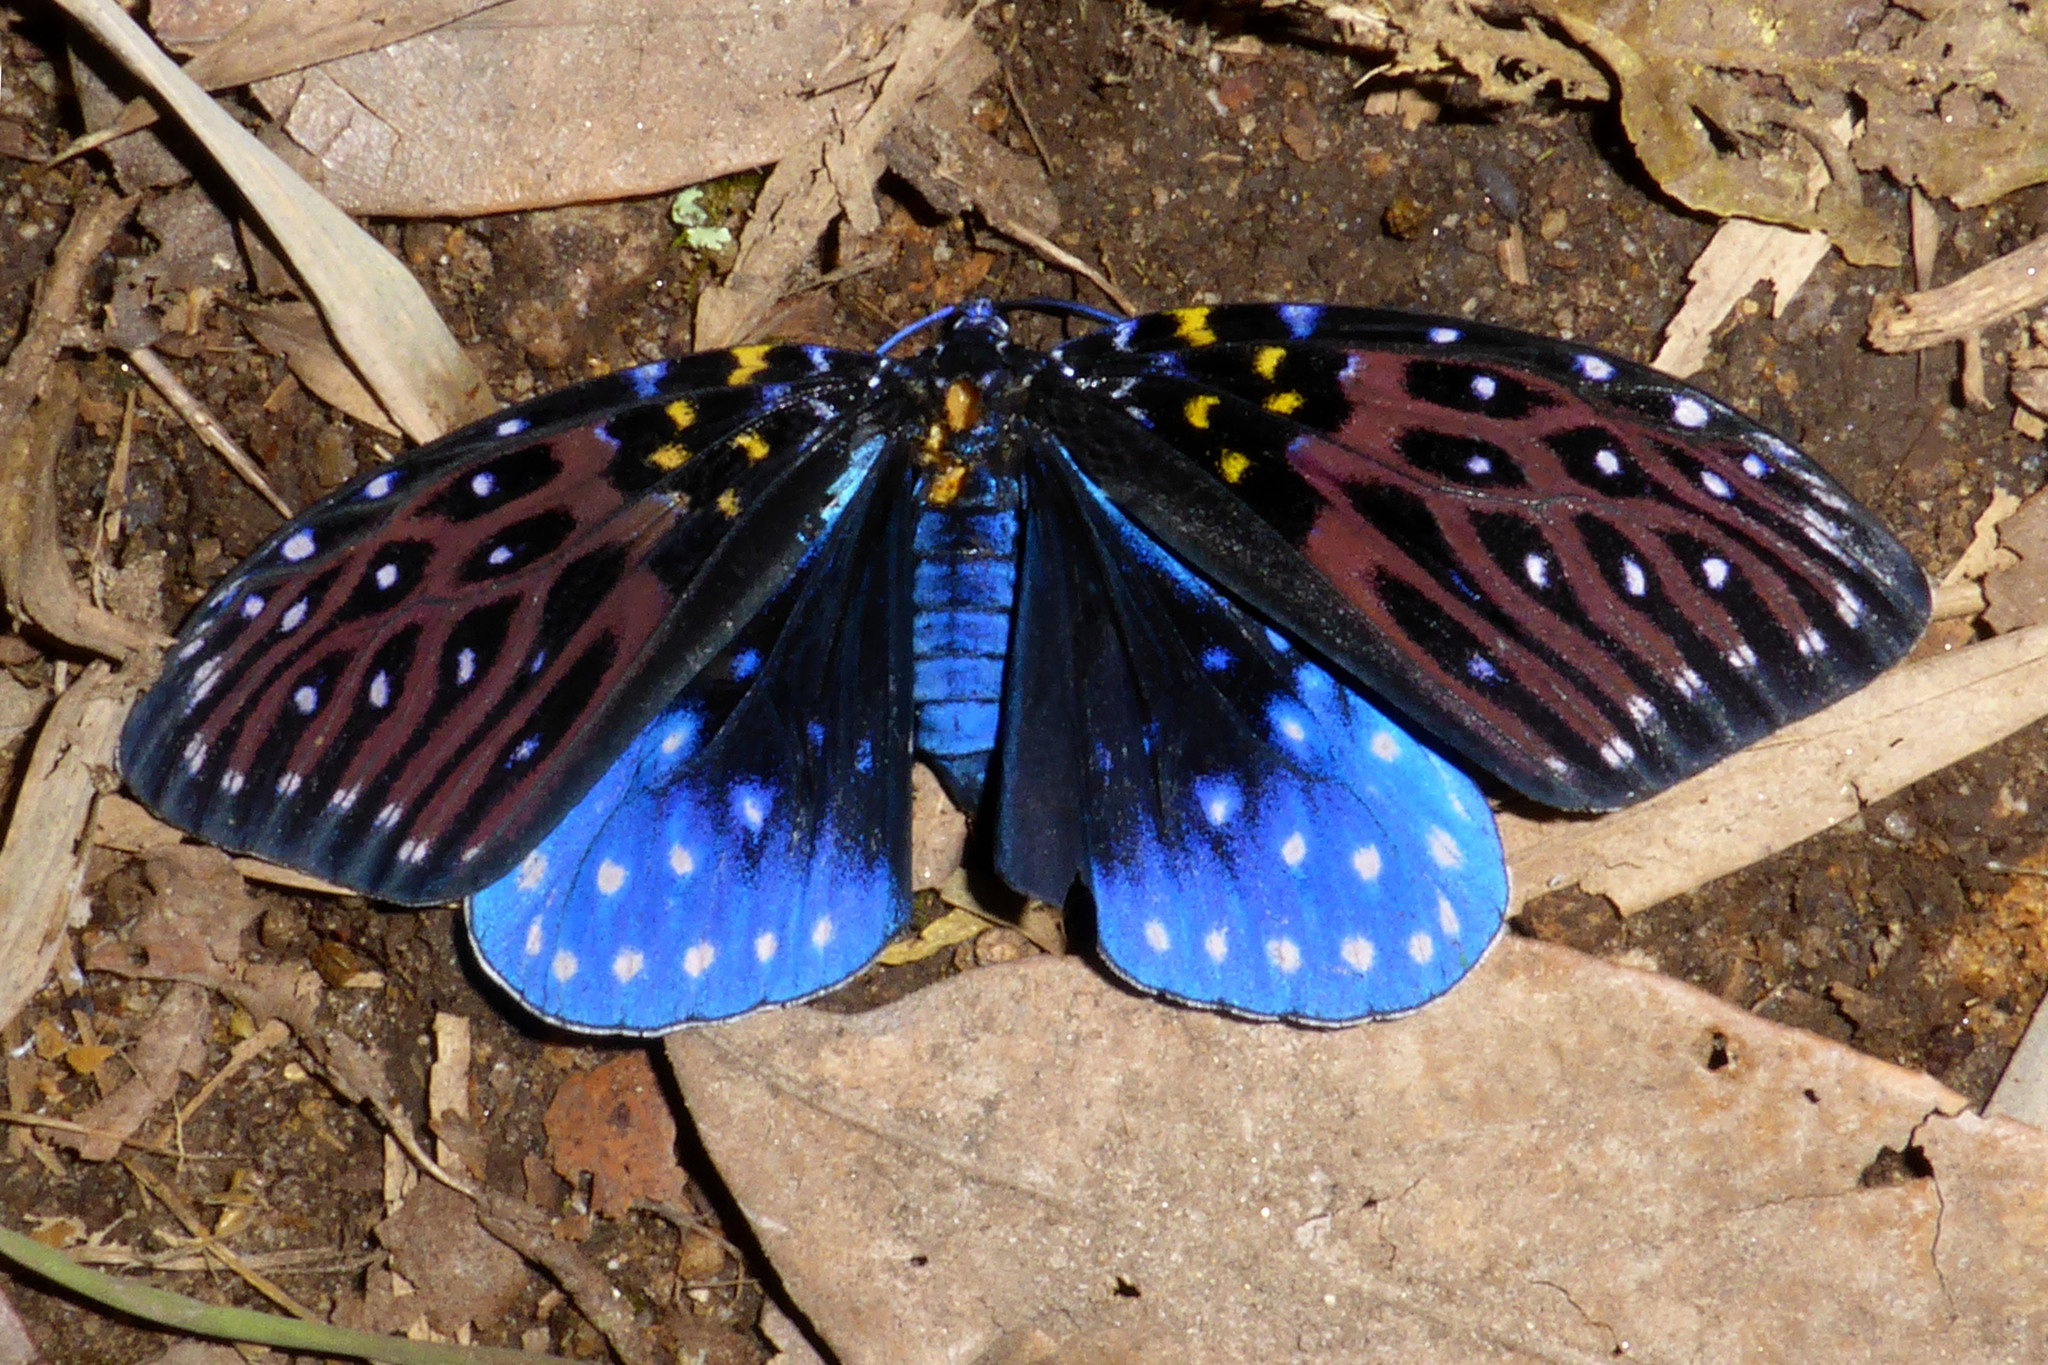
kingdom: Animalia
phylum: Arthropoda
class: Insecta
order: Lepidoptera
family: Zygaenidae
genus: Amesia
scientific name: Amesia sanguiflua
